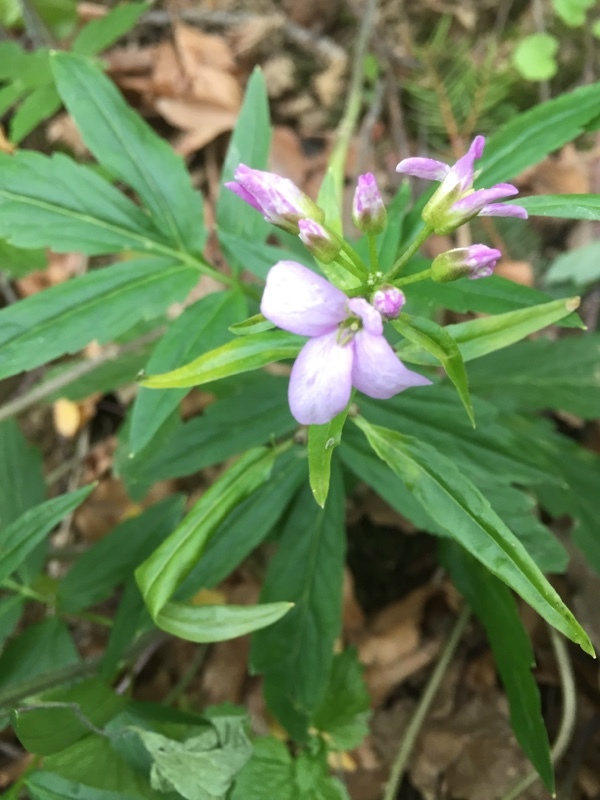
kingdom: Plantae
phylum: Tracheophyta
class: Magnoliopsida
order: Brassicales
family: Brassicaceae
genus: Cardamine
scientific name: Cardamine bulbifera
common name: Coralroot bittercress
